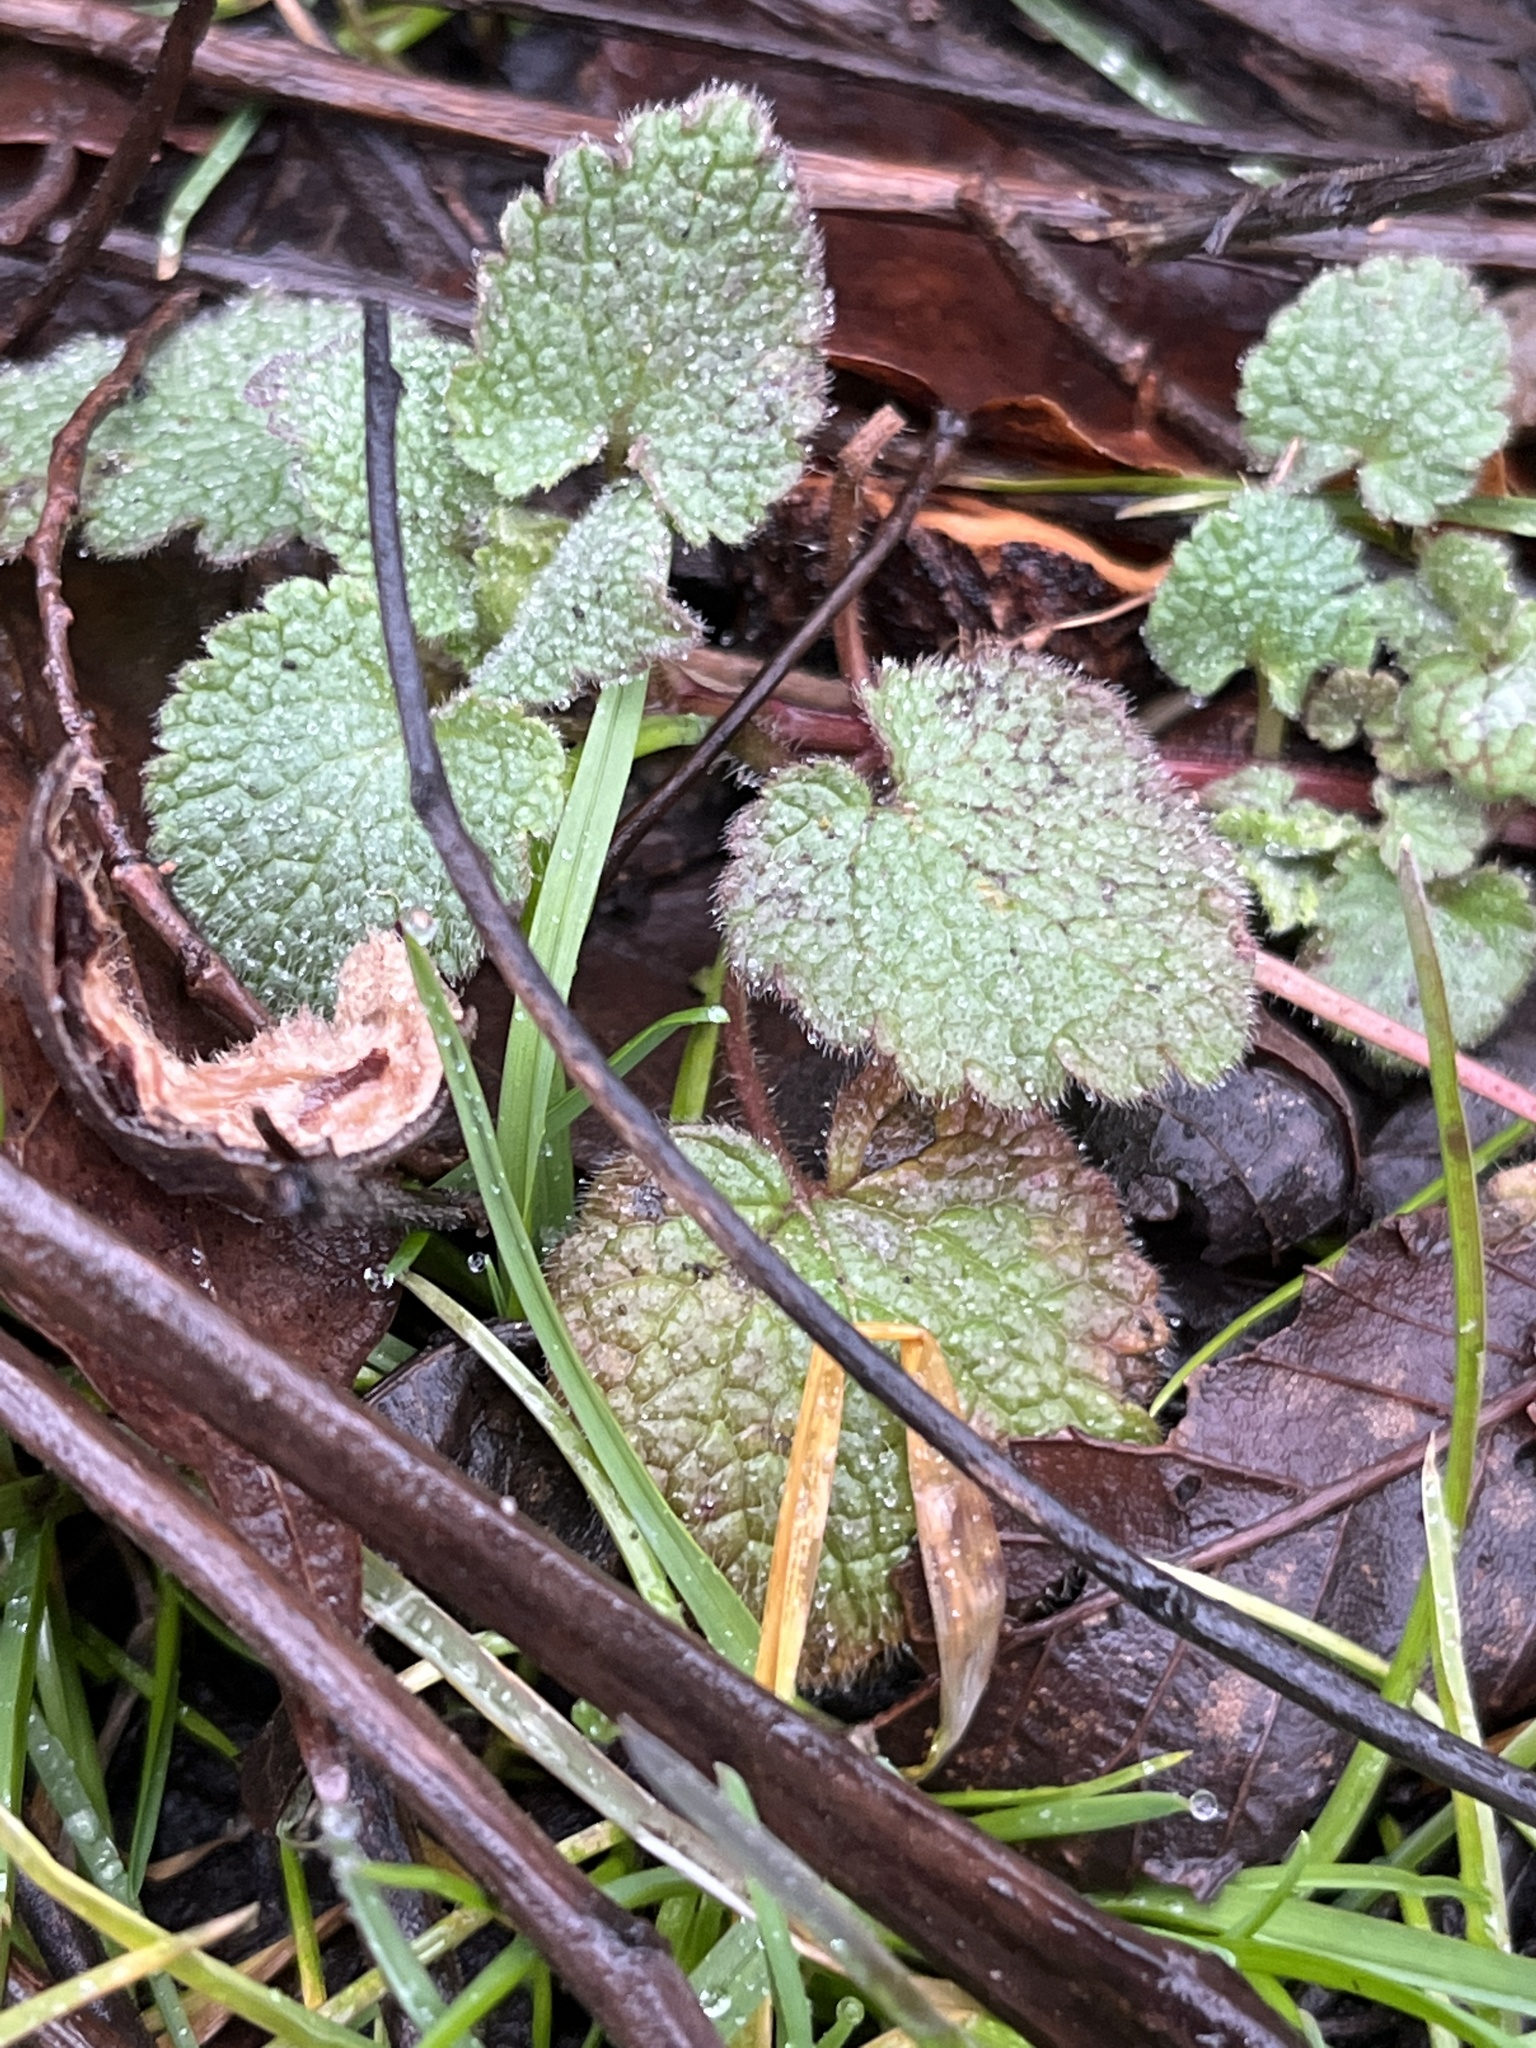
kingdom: Plantae
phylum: Tracheophyta
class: Magnoliopsida
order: Lamiales
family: Lamiaceae
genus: Lamium
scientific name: Lamium purpureum
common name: Red dead-nettle
